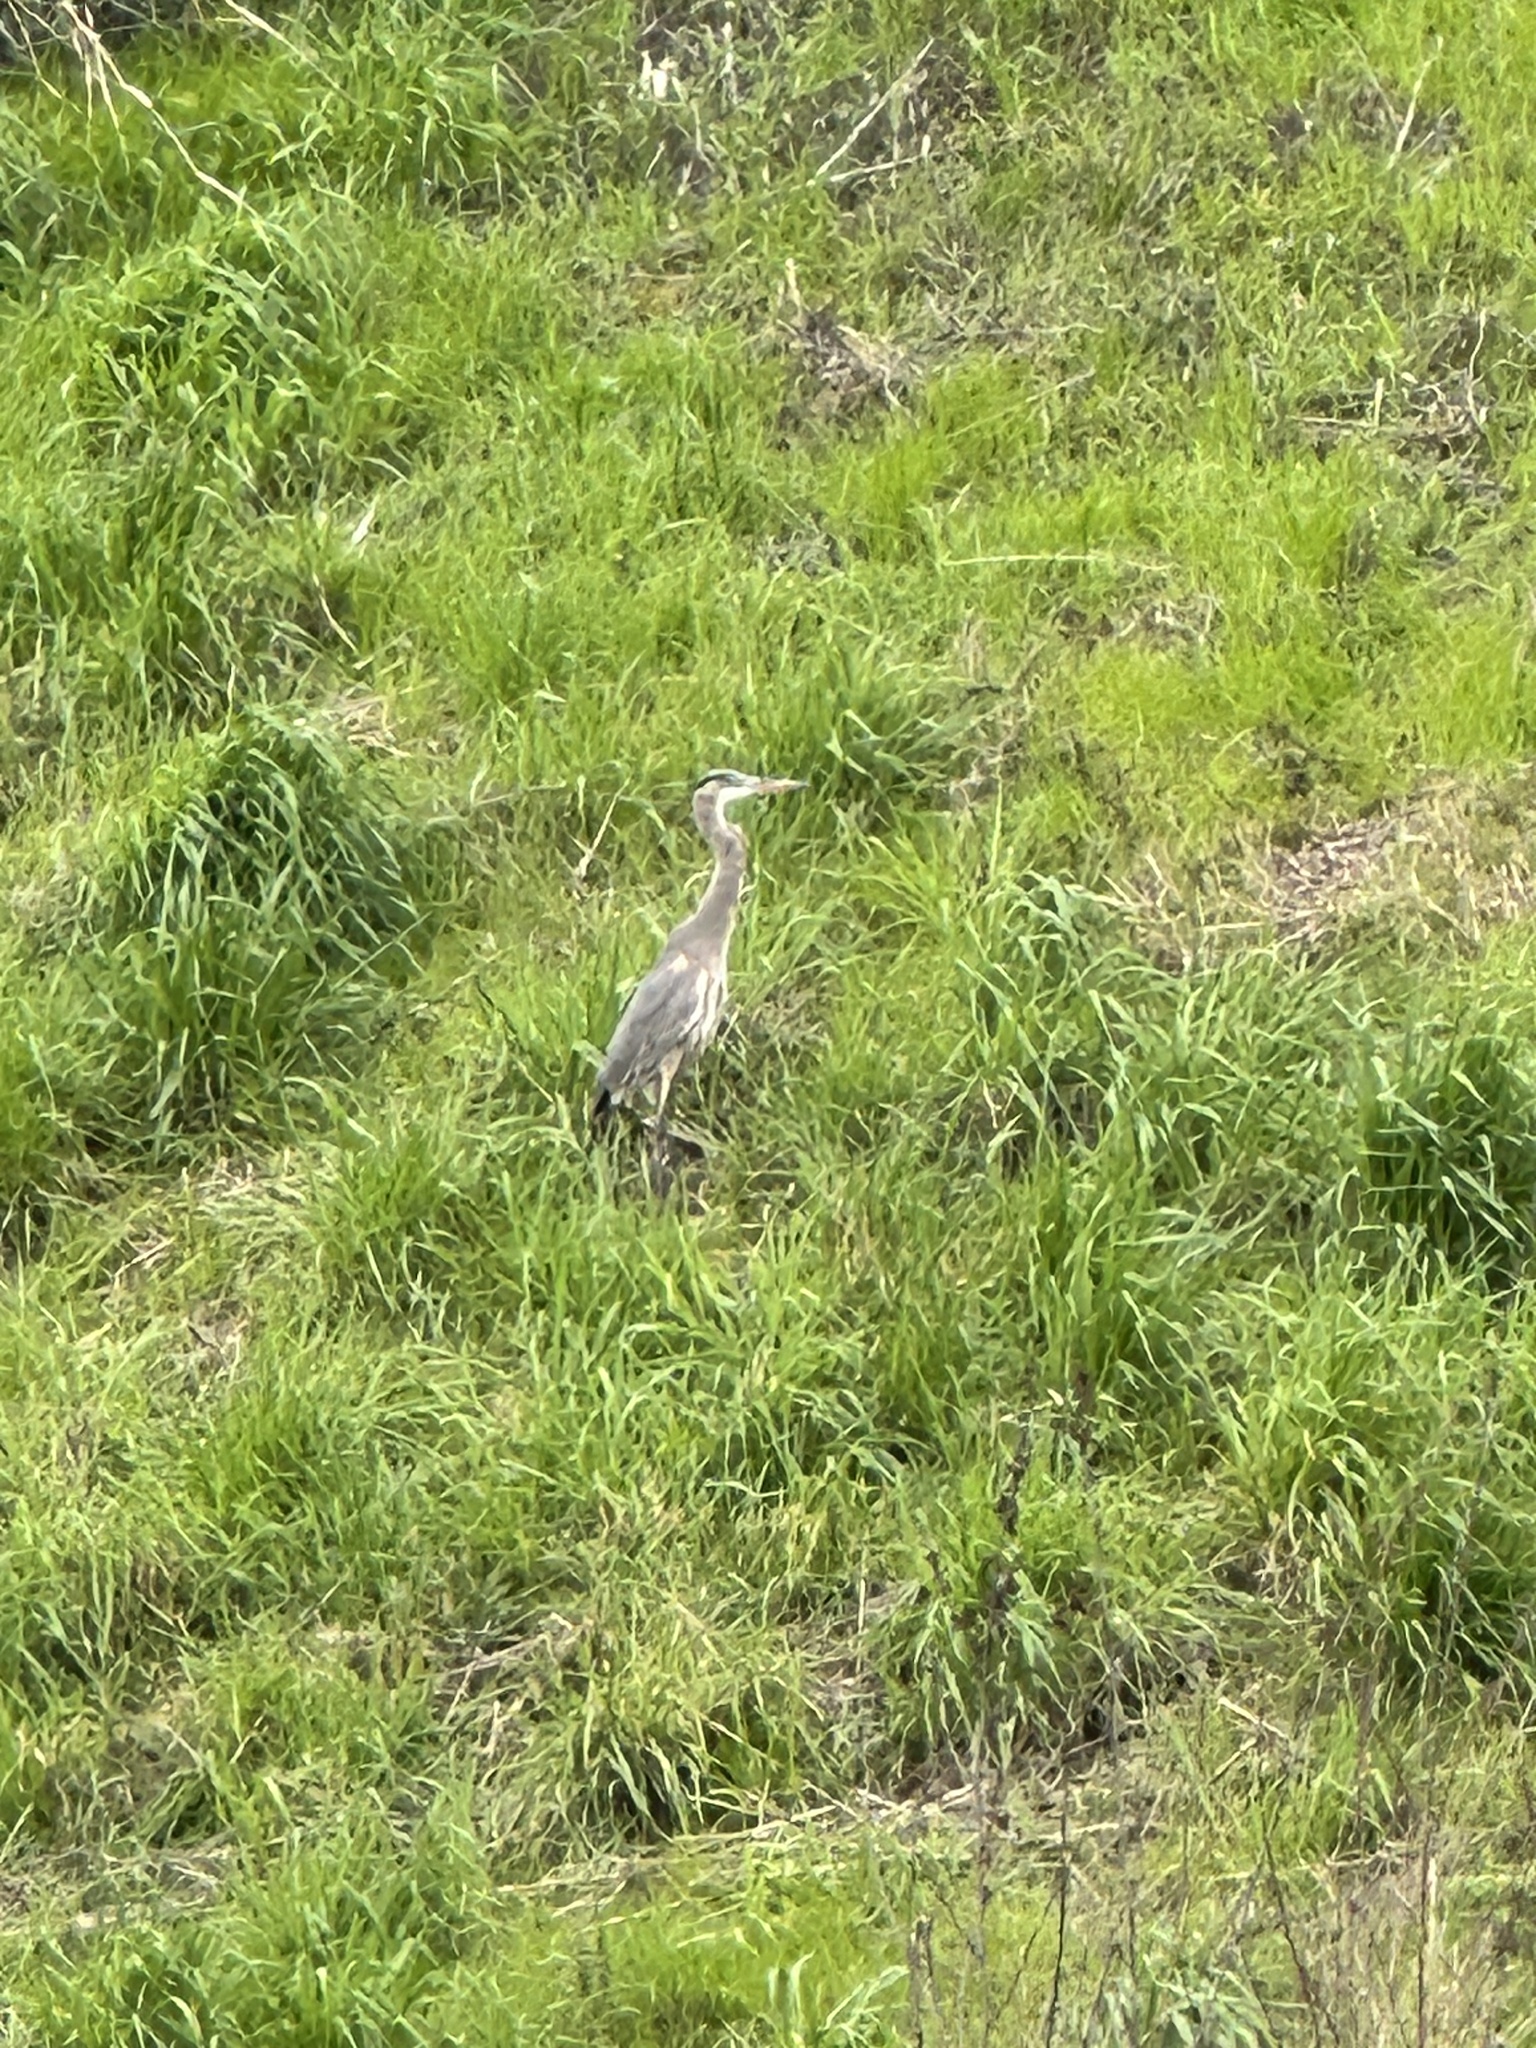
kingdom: Animalia
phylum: Chordata
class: Aves
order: Pelecaniformes
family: Ardeidae
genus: Ardea
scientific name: Ardea herodias
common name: Great blue heron
